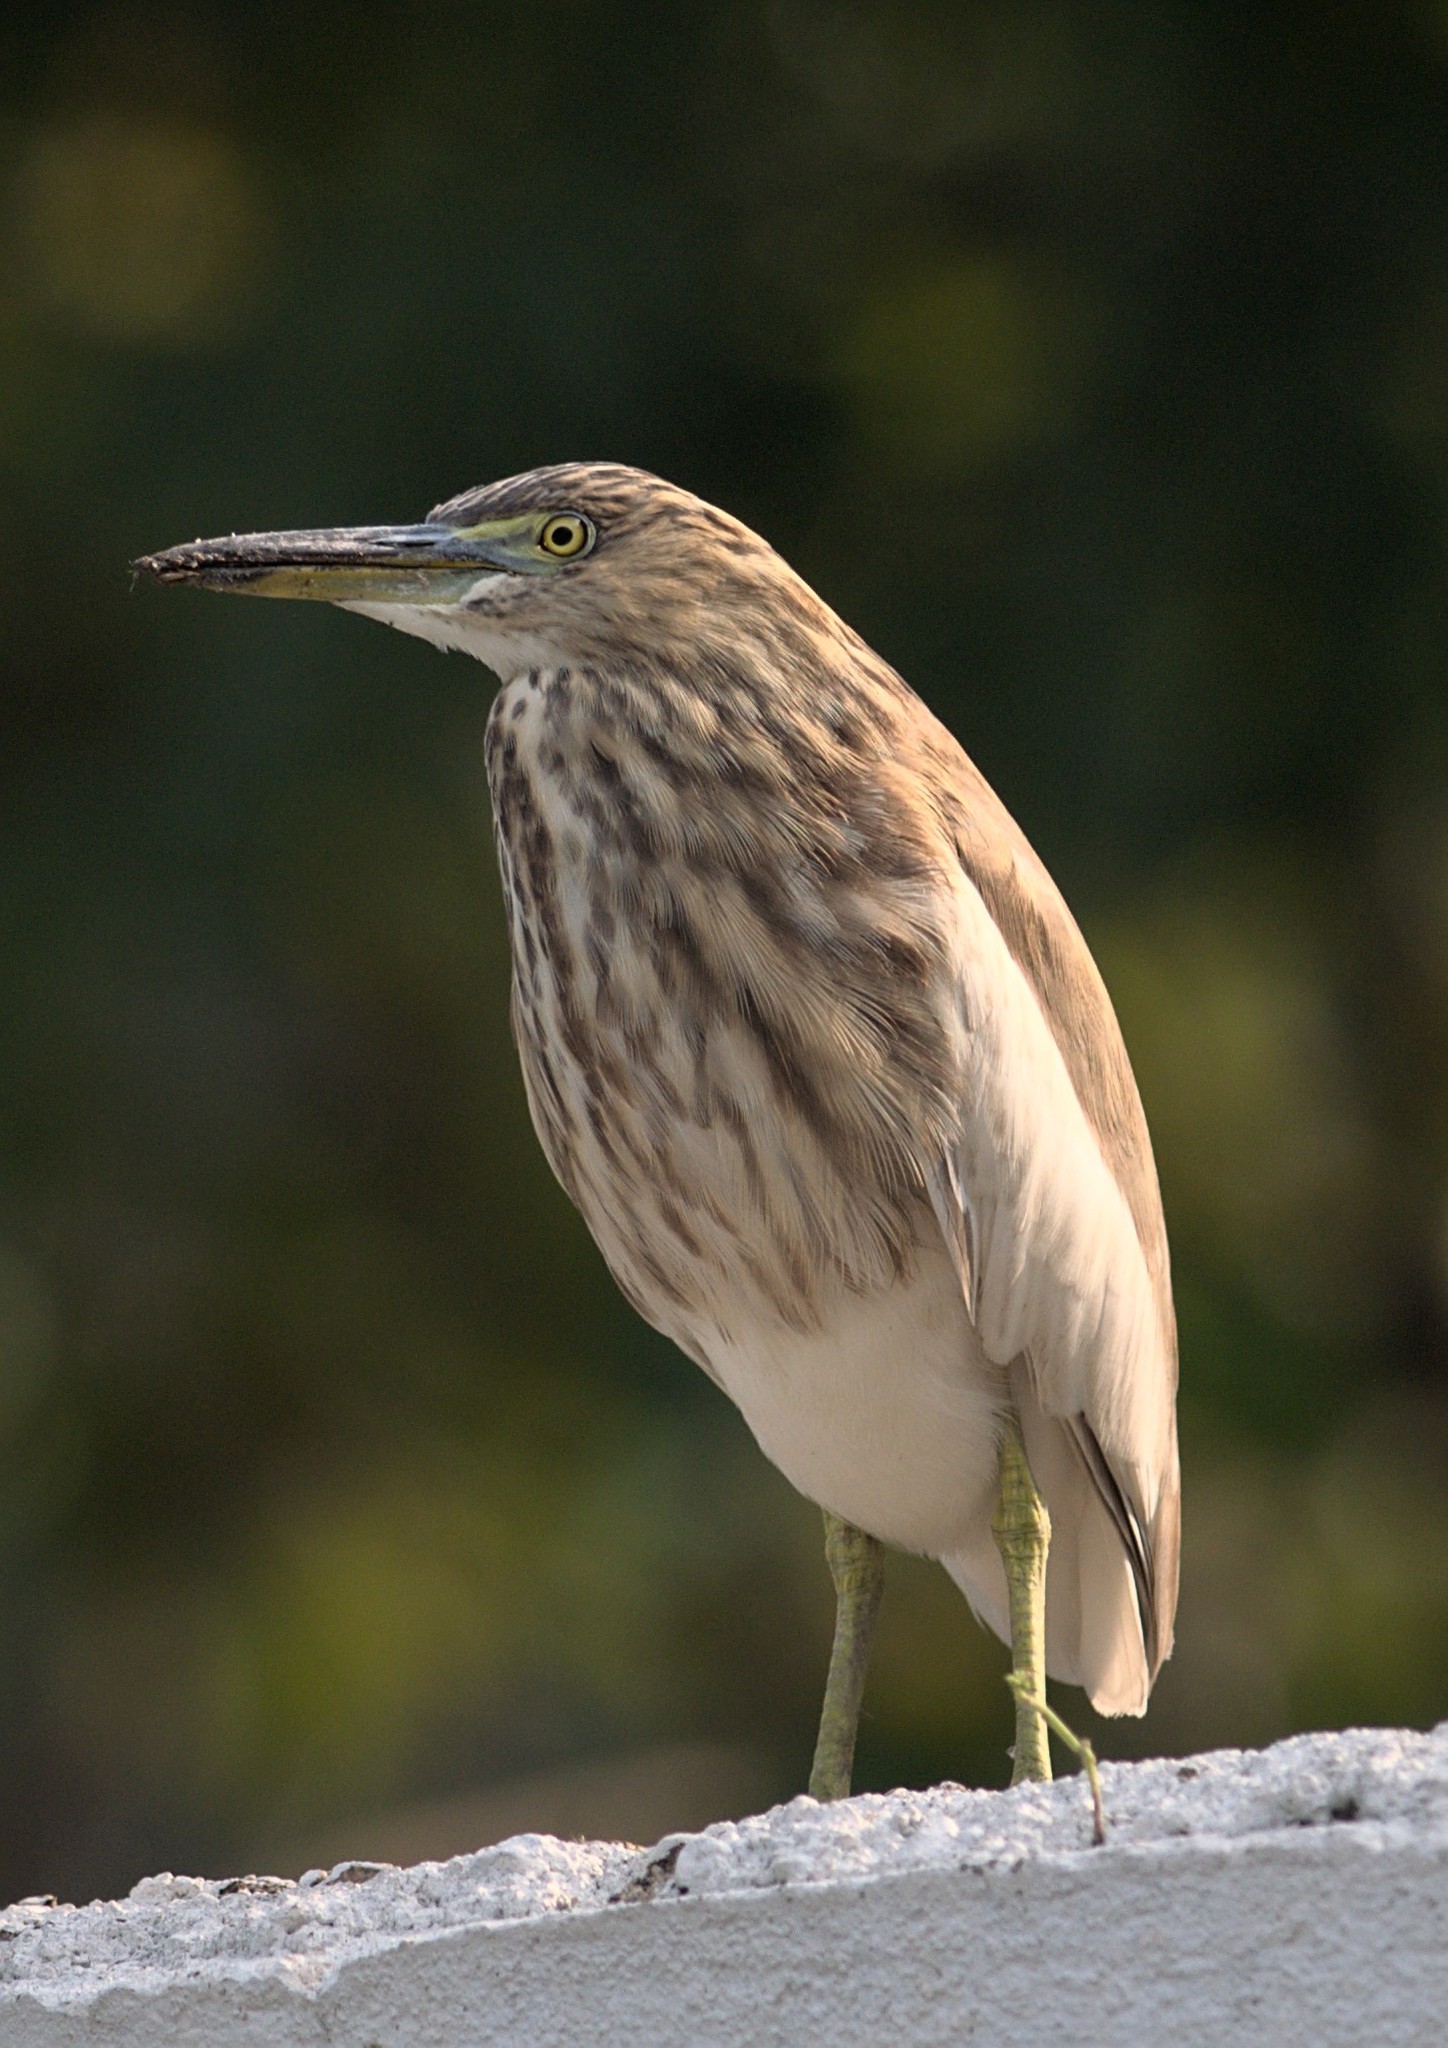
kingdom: Animalia
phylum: Chordata
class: Aves
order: Pelecaniformes
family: Ardeidae
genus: Ardeola
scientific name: Ardeola grayii
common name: Indian pond heron
